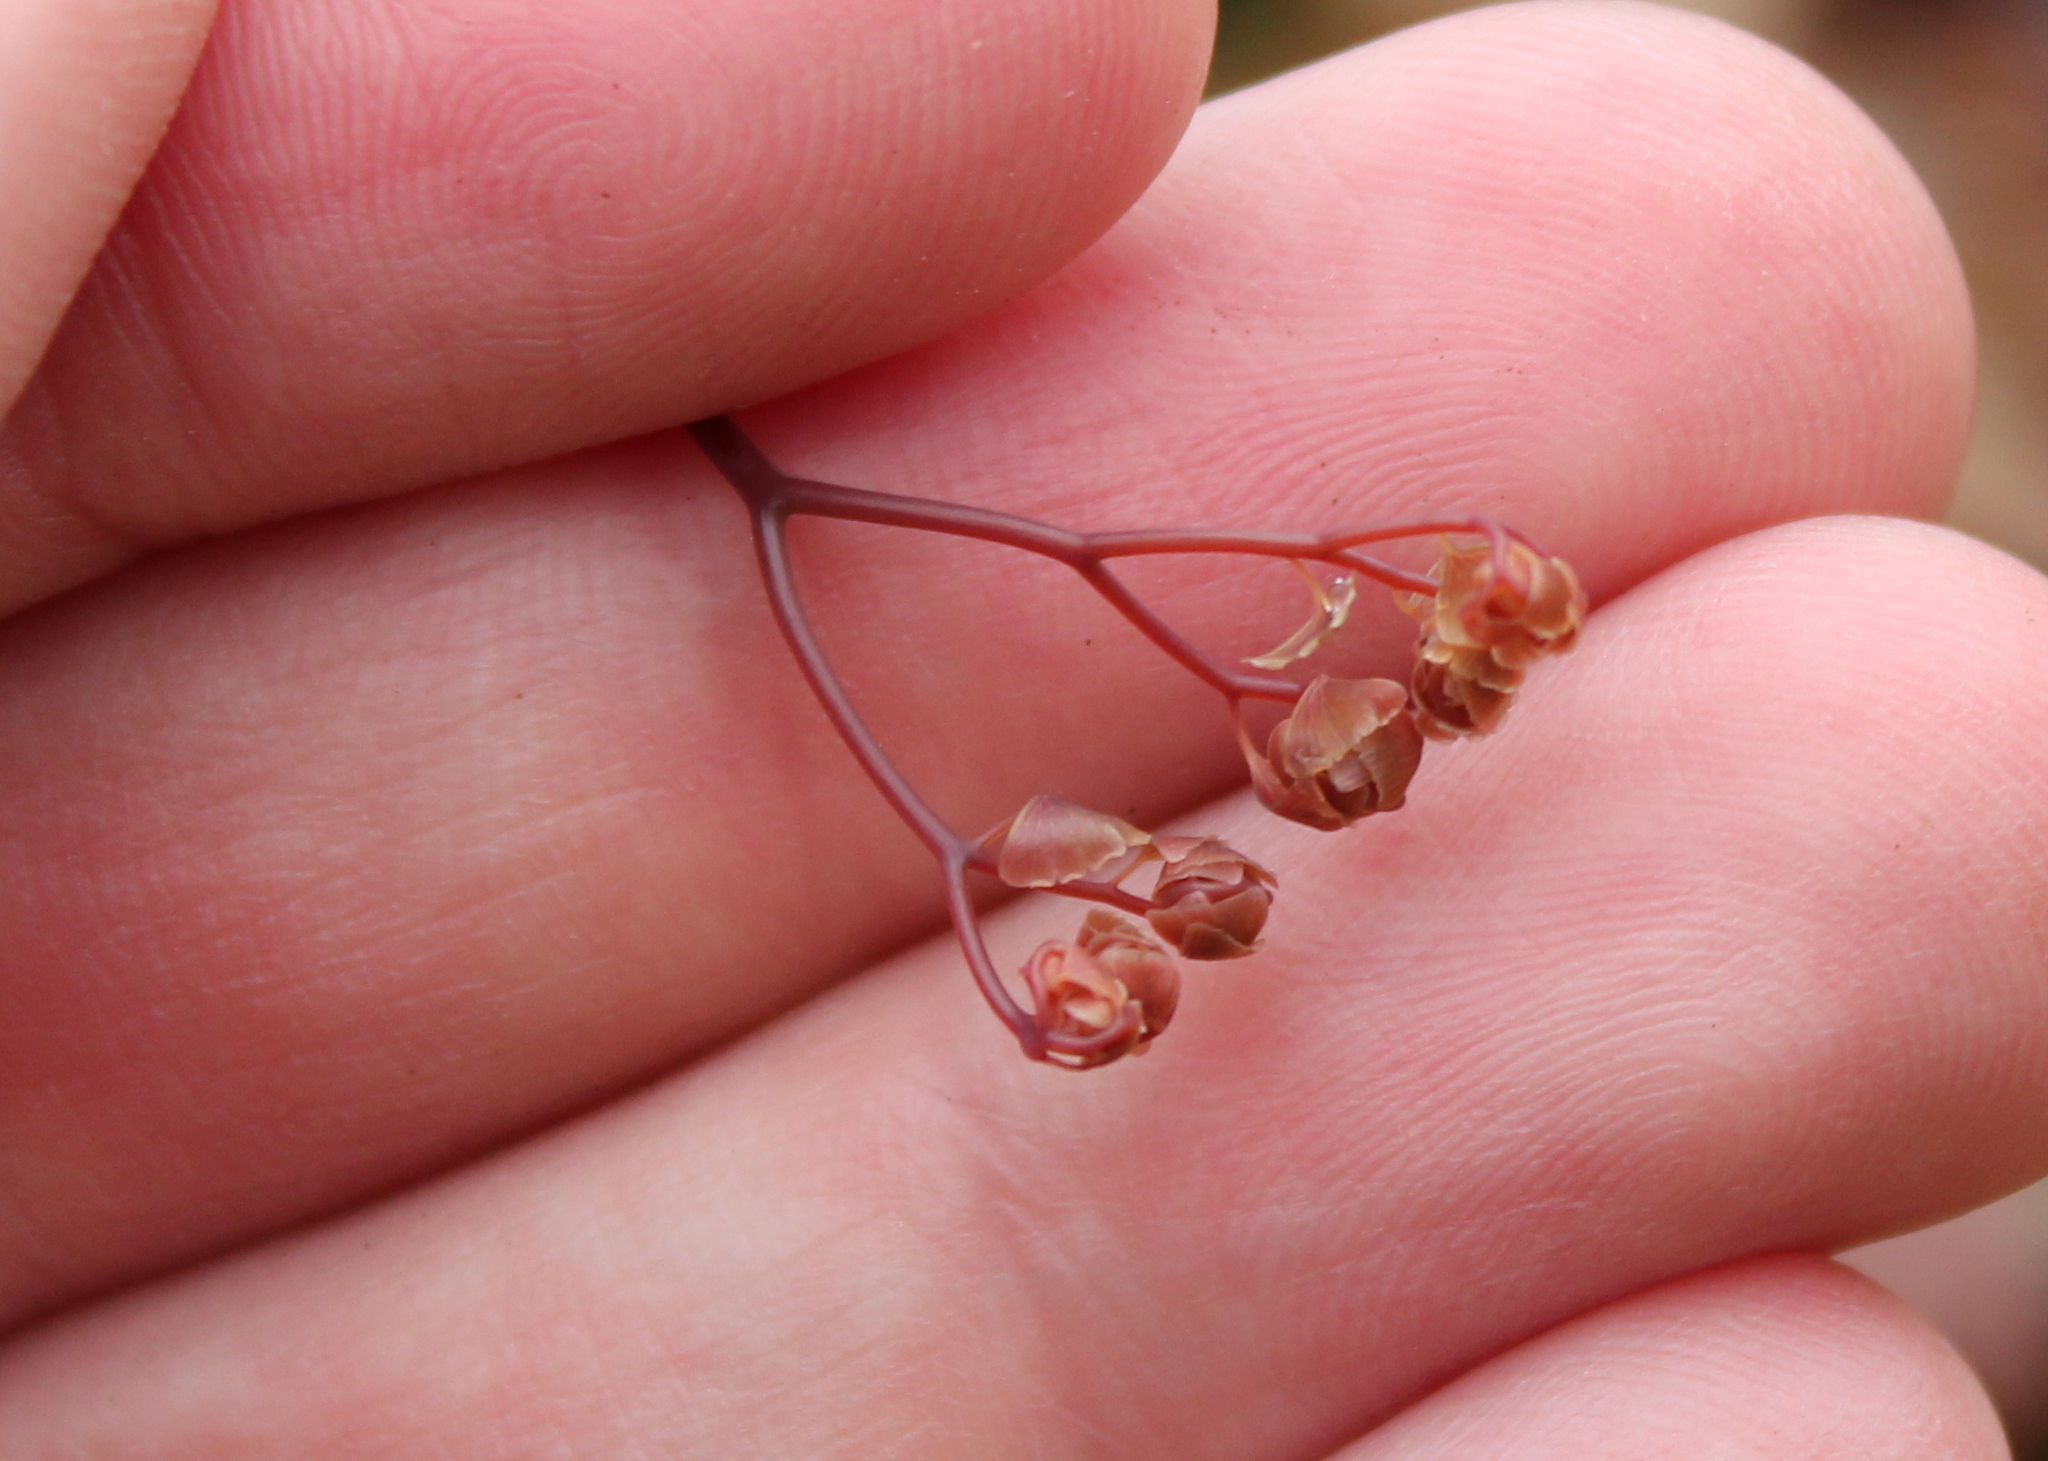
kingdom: Plantae
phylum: Tracheophyta
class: Polypodiopsida
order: Polypodiales
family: Pteridaceae
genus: Adiantum
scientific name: Adiantum pedatum
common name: Five-finger fern
